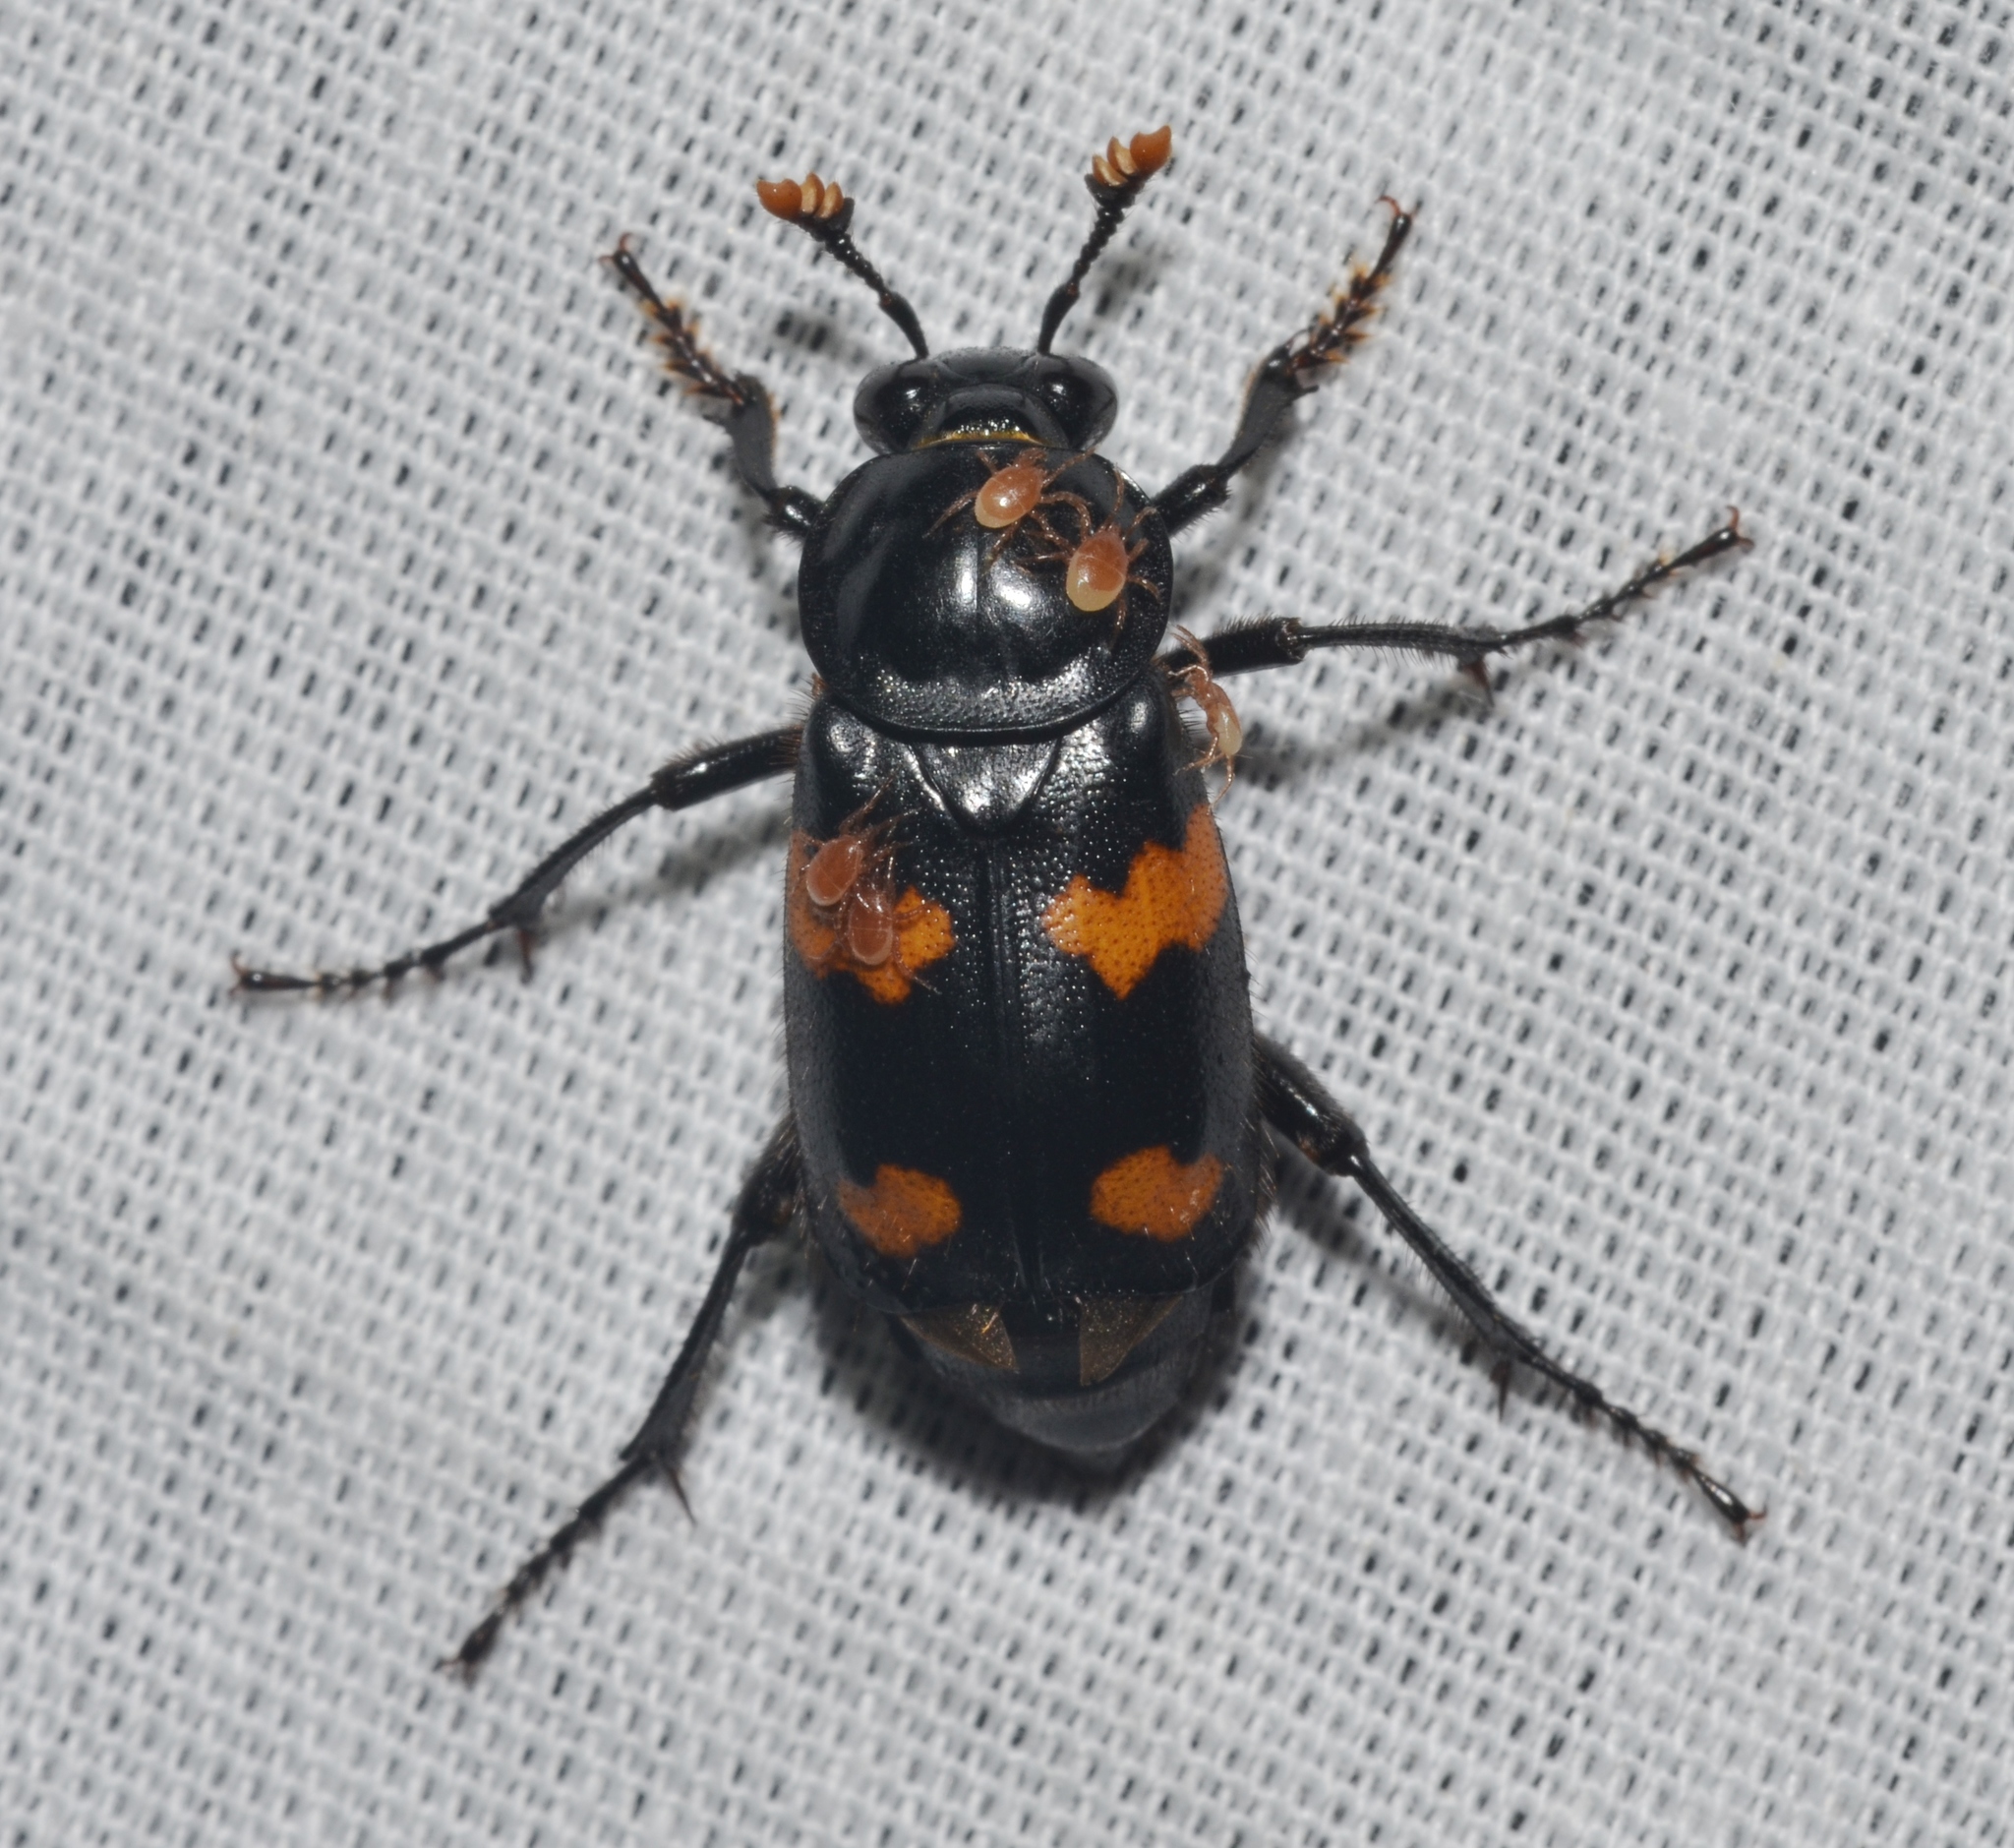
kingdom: Animalia
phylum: Arthropoda
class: Insecta
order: Coleoptera
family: Staphylinidae
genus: Nicrophorus
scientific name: Nicrophorus orbicollis
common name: Roundneck sexton beetle
